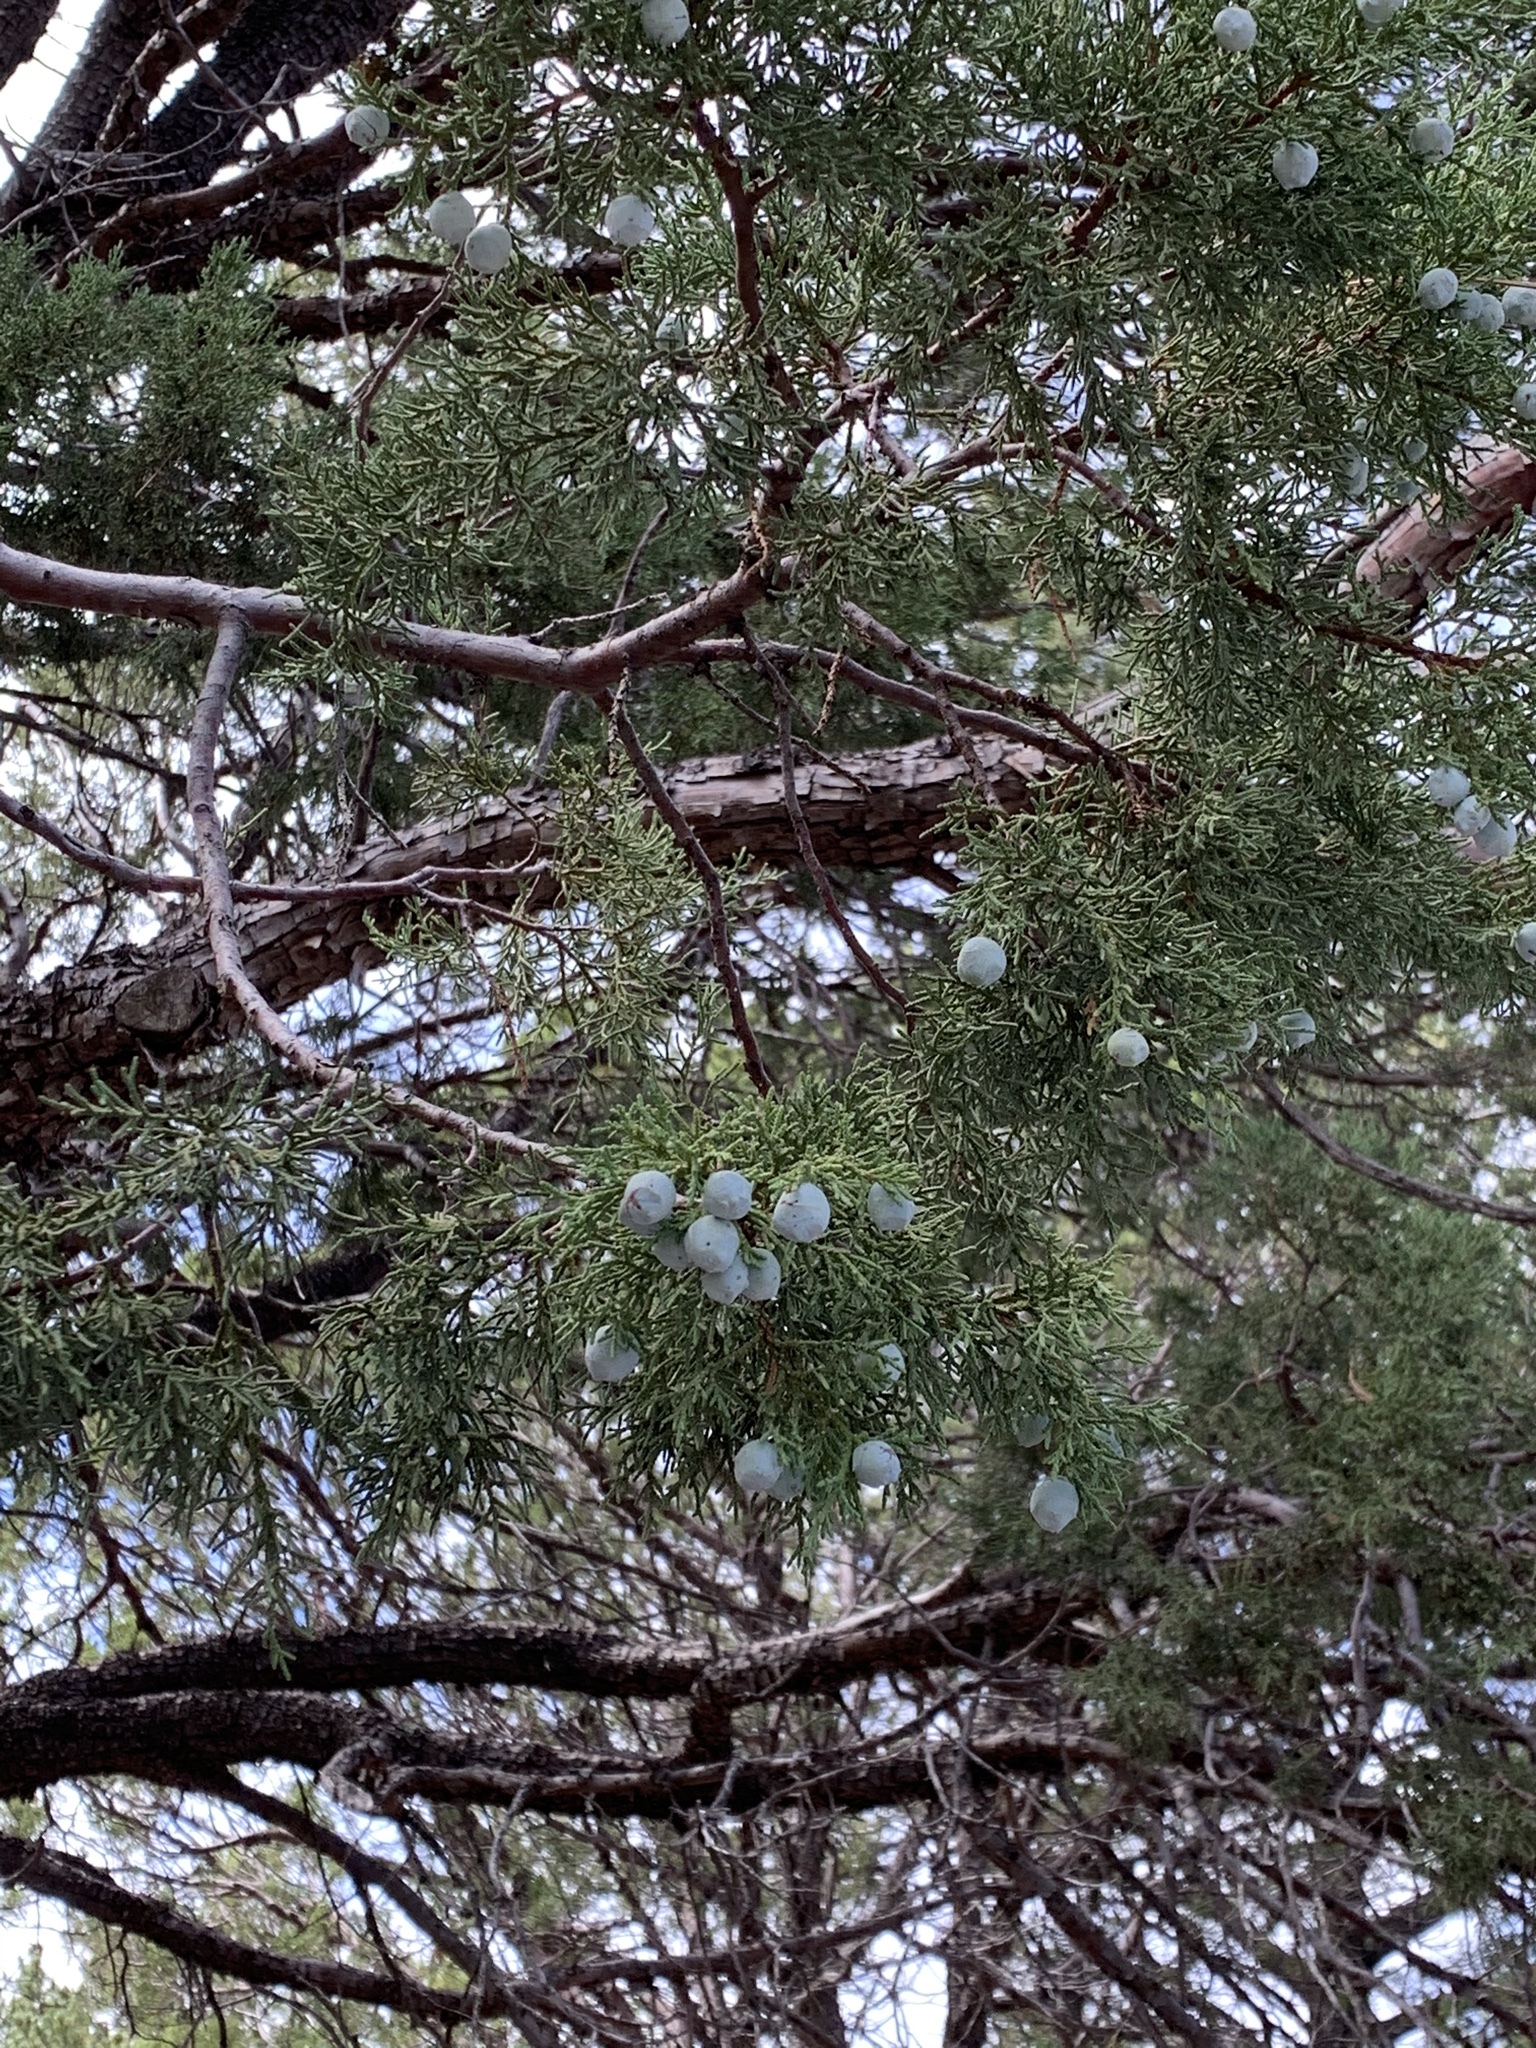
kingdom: Plantae
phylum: Tracheophyta
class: Pinopsida
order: Pinales
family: Cupressaceae
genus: Juniperus
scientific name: Juniperus deppeana
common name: Alligator juniper
